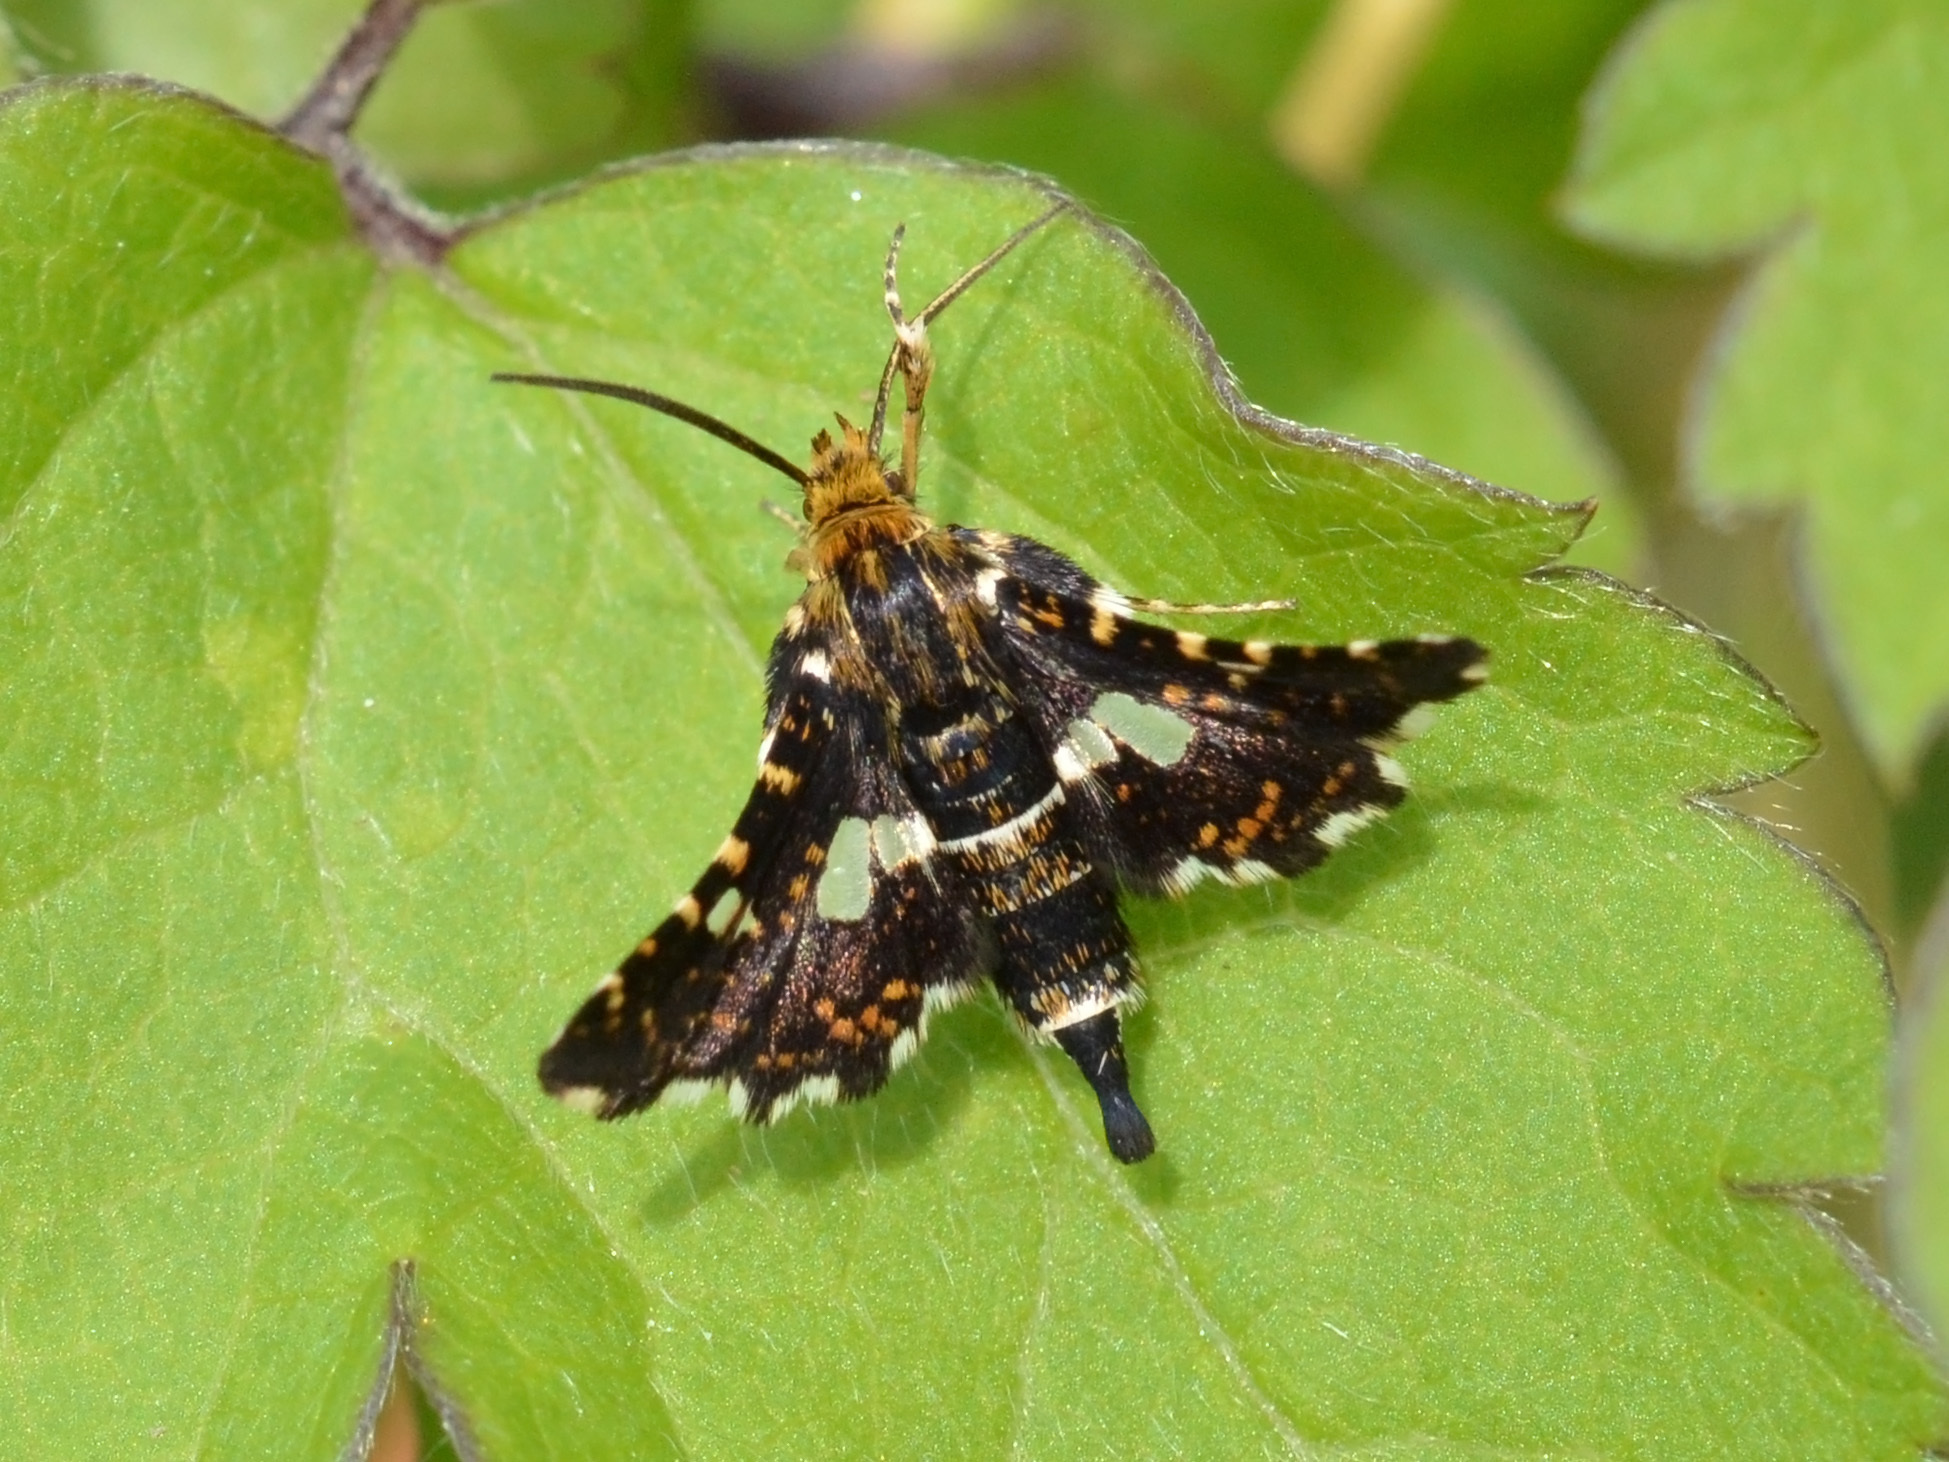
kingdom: Animalia
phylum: Arthropoda
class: Insecta
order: Lepidoptera
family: Thyrididae
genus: Thyris
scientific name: Thyris fenestrella
